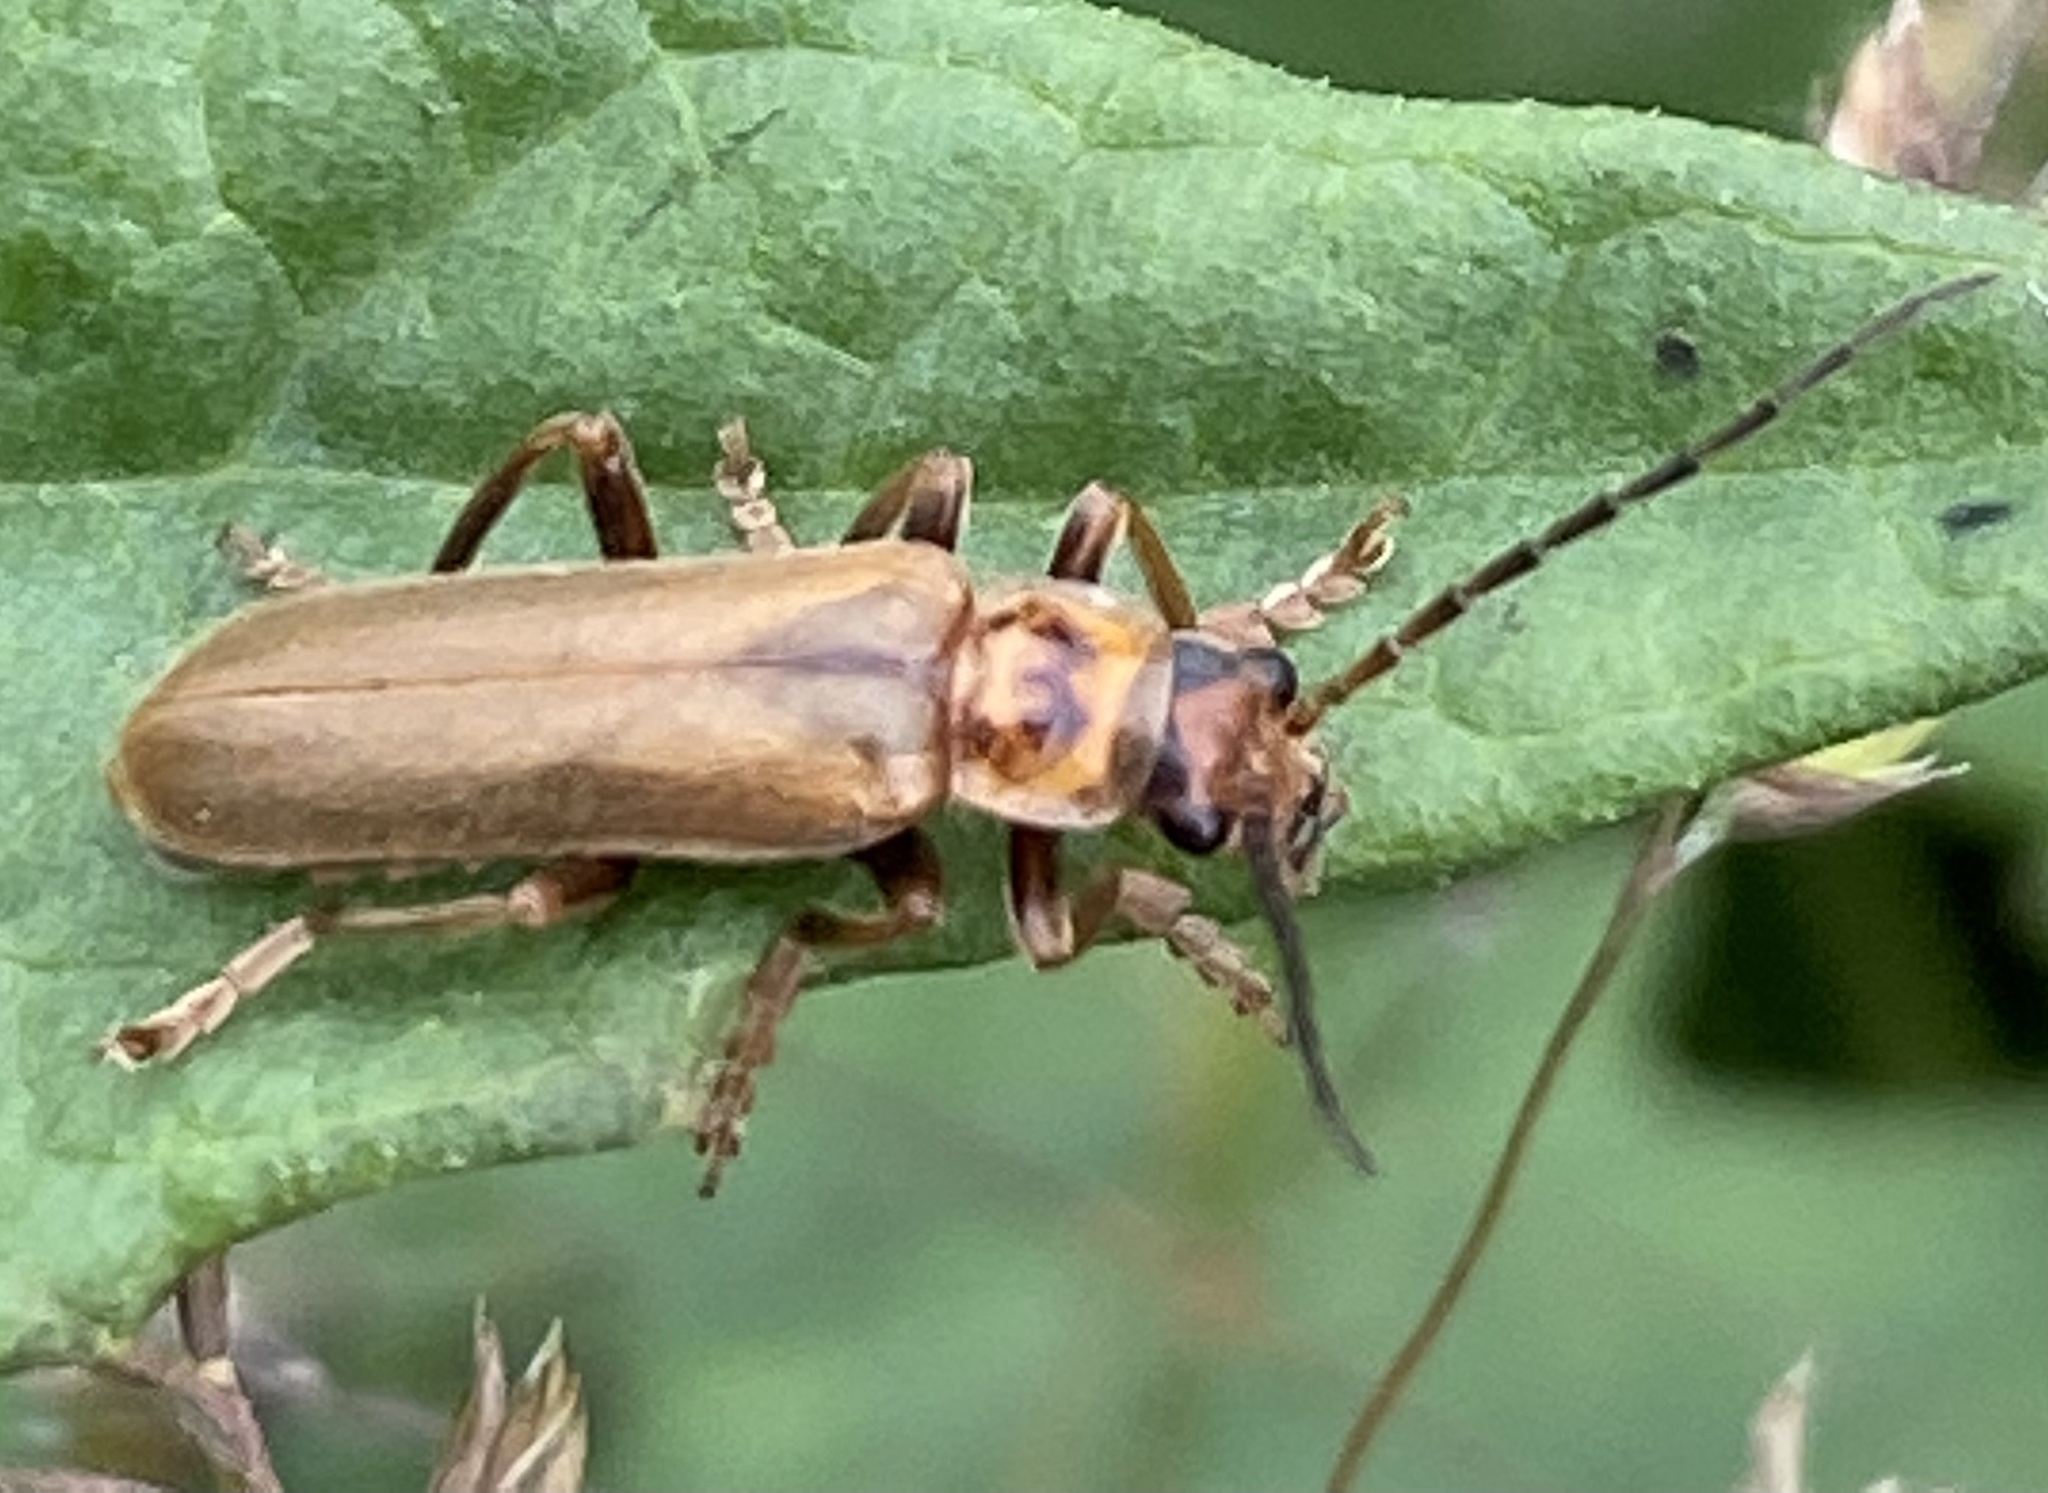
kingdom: Animalia
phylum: Arthropoda
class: Insecta
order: Coleoptera
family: Cantharidae
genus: Cantharis
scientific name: Cantharis rufa
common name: Red-spotted soldier beetle
